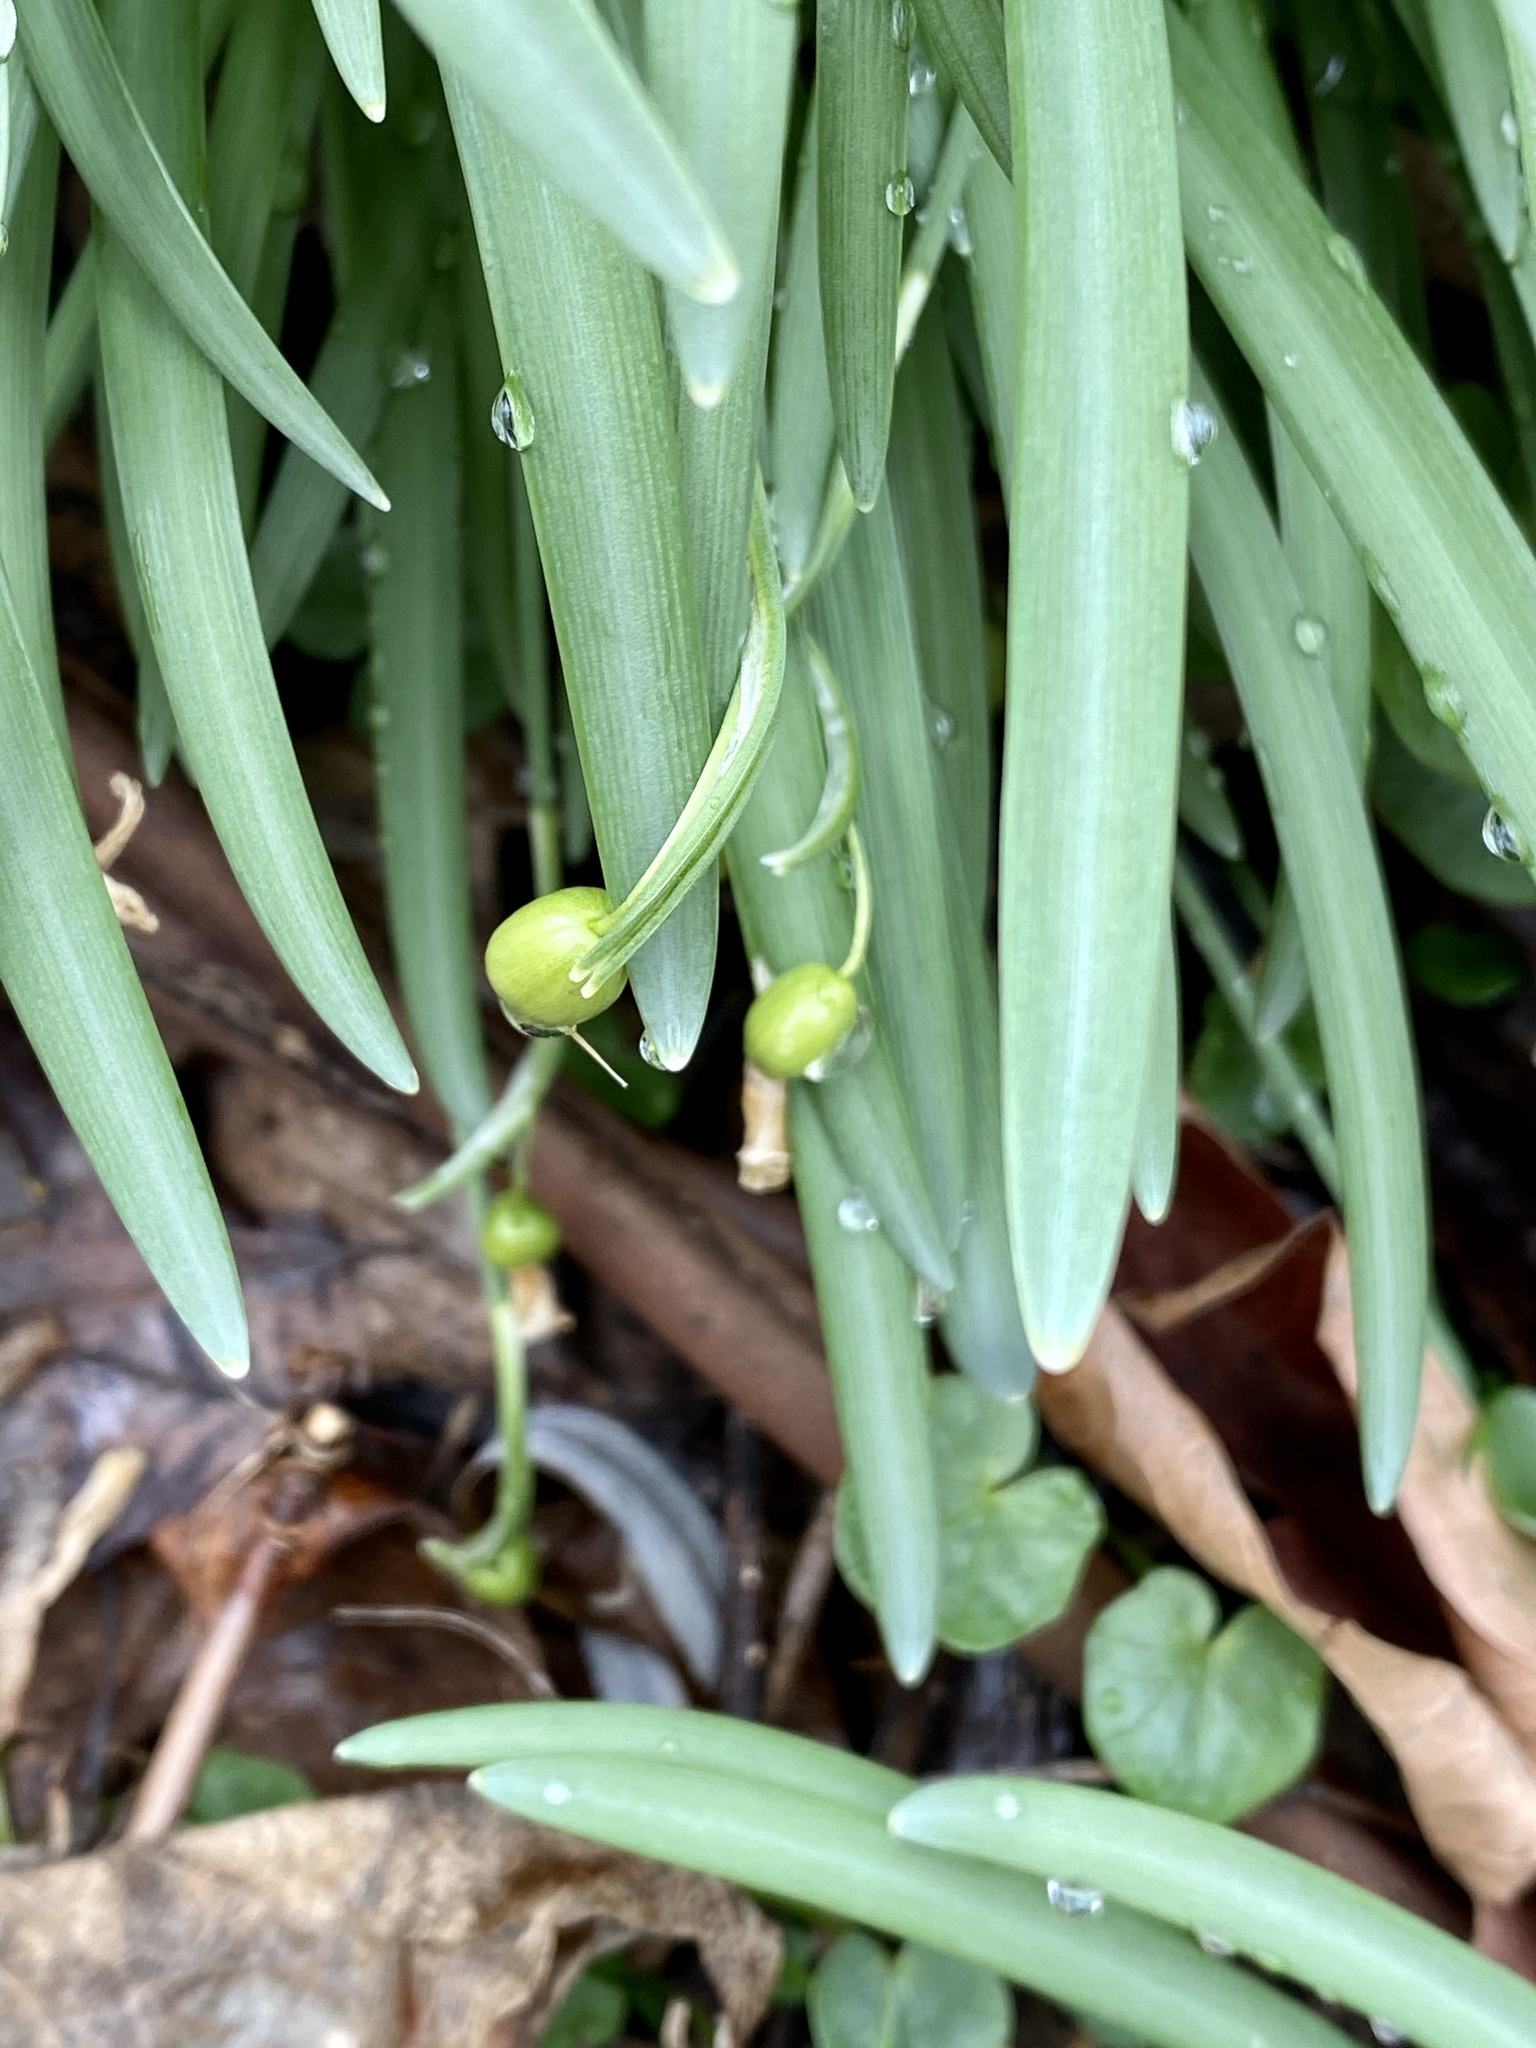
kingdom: Plantae
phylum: Tracheophyta
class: Liliopsida
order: Asparagales
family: Amaryllidaceae
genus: Galanthus
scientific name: Galanthus nivalis
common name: Snowdrop
